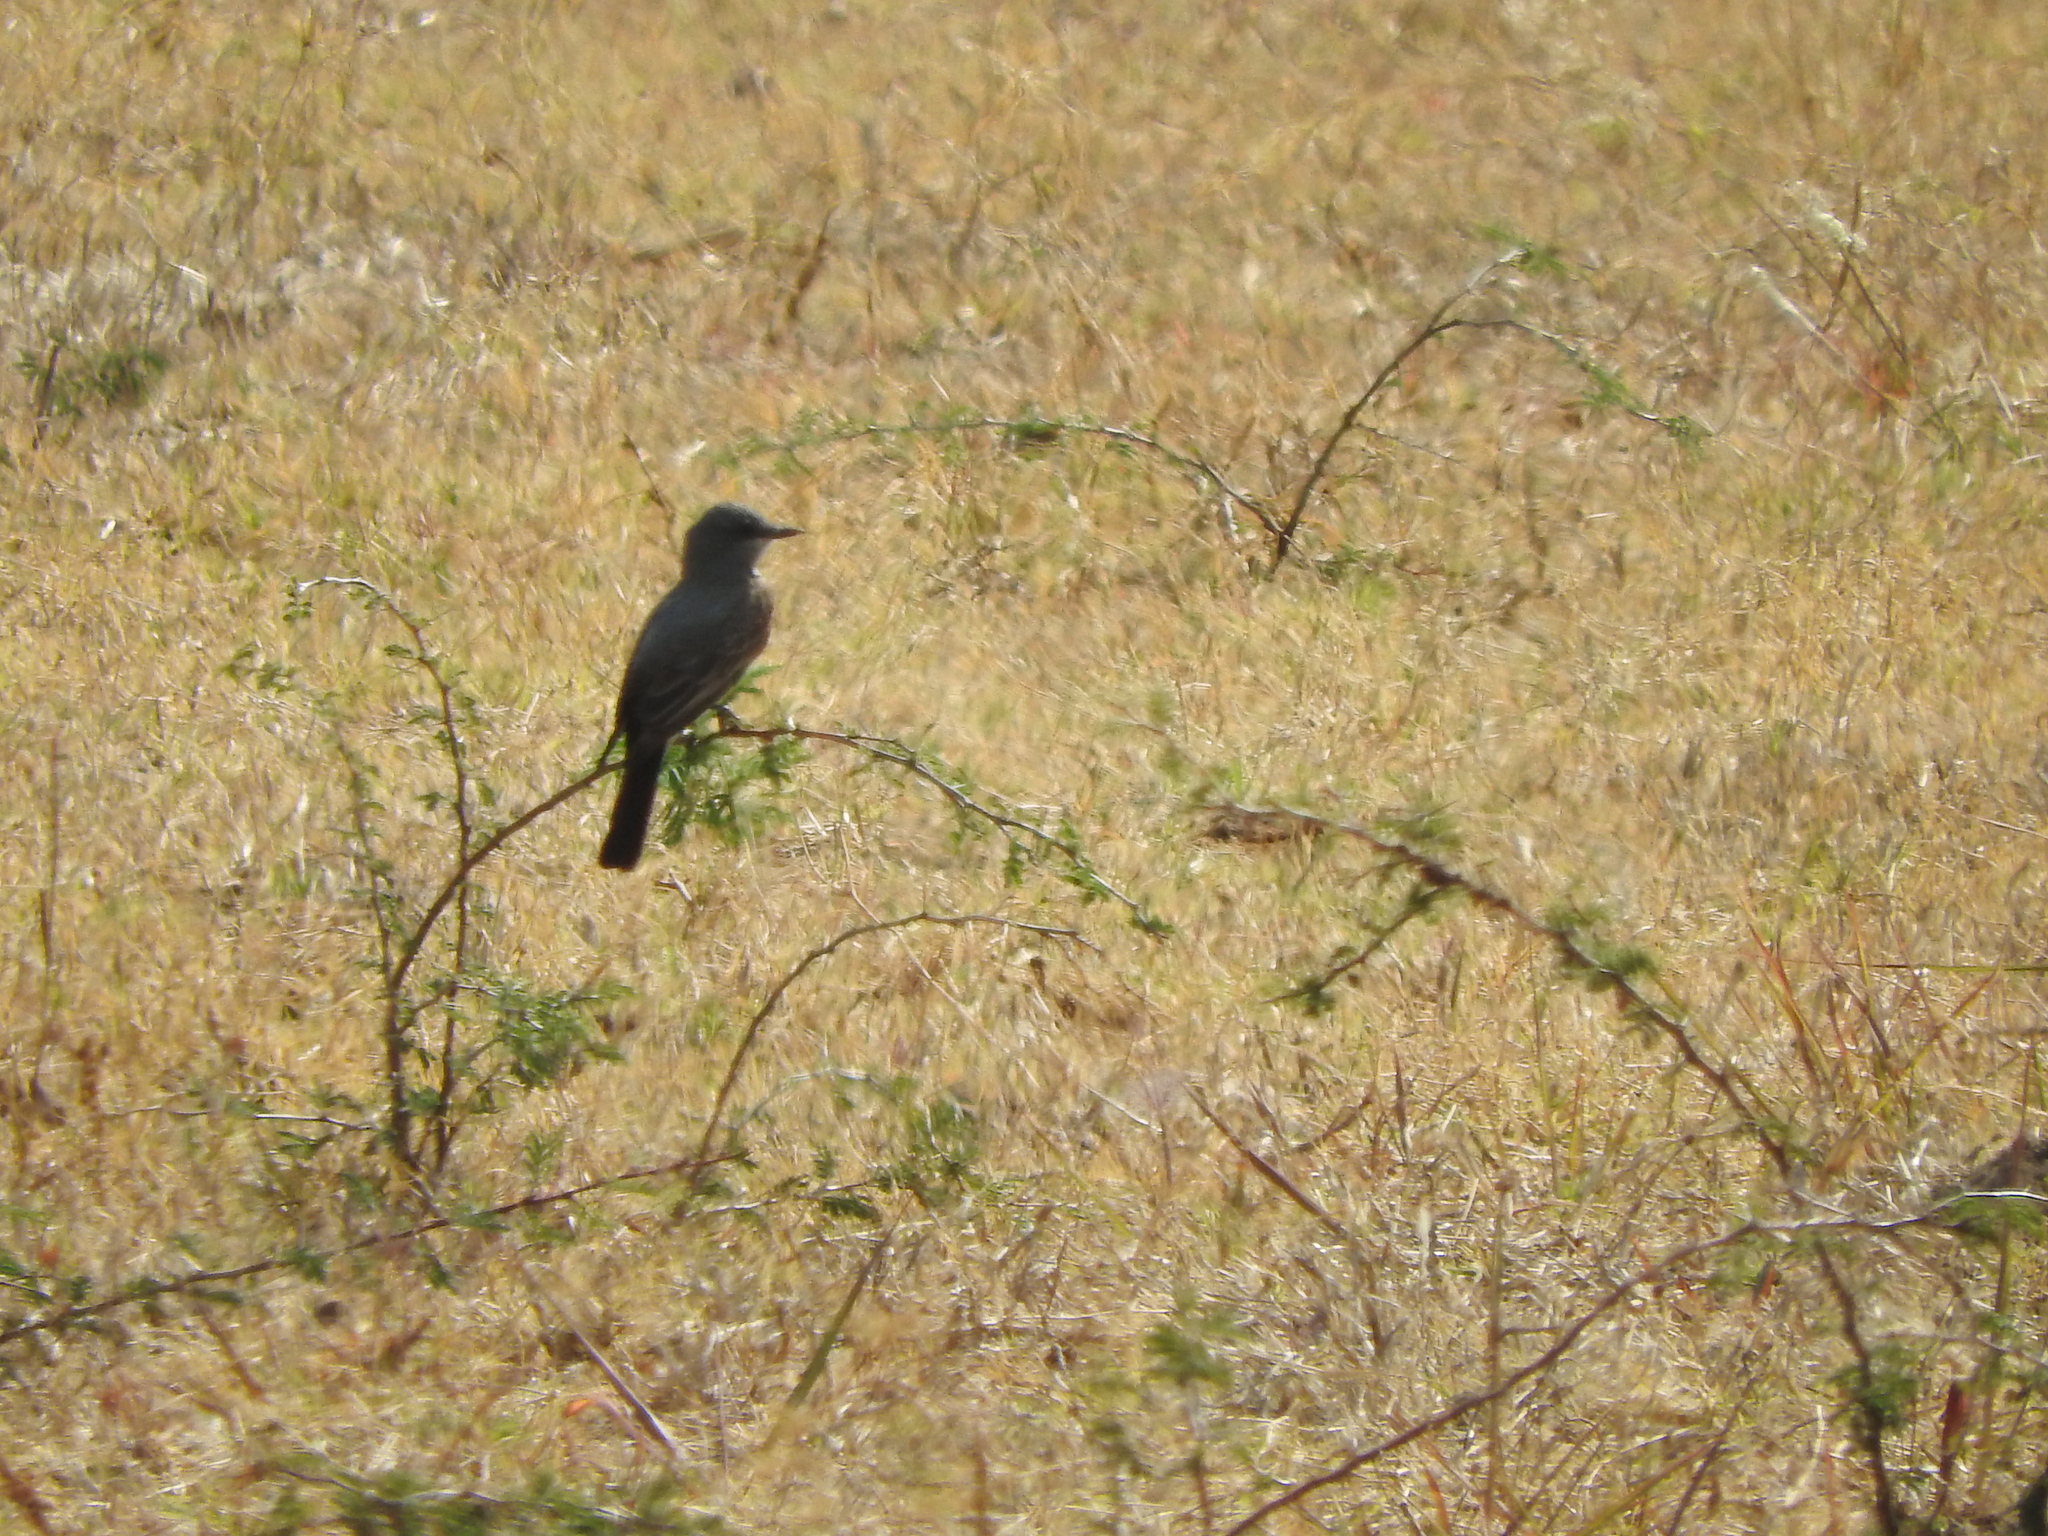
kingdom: Animalia
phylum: Chordata
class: Aves
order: Passeriformes
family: Tyrannidae
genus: Tyrannus
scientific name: Tyrannus vociferans
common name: Cassin's kingbird
